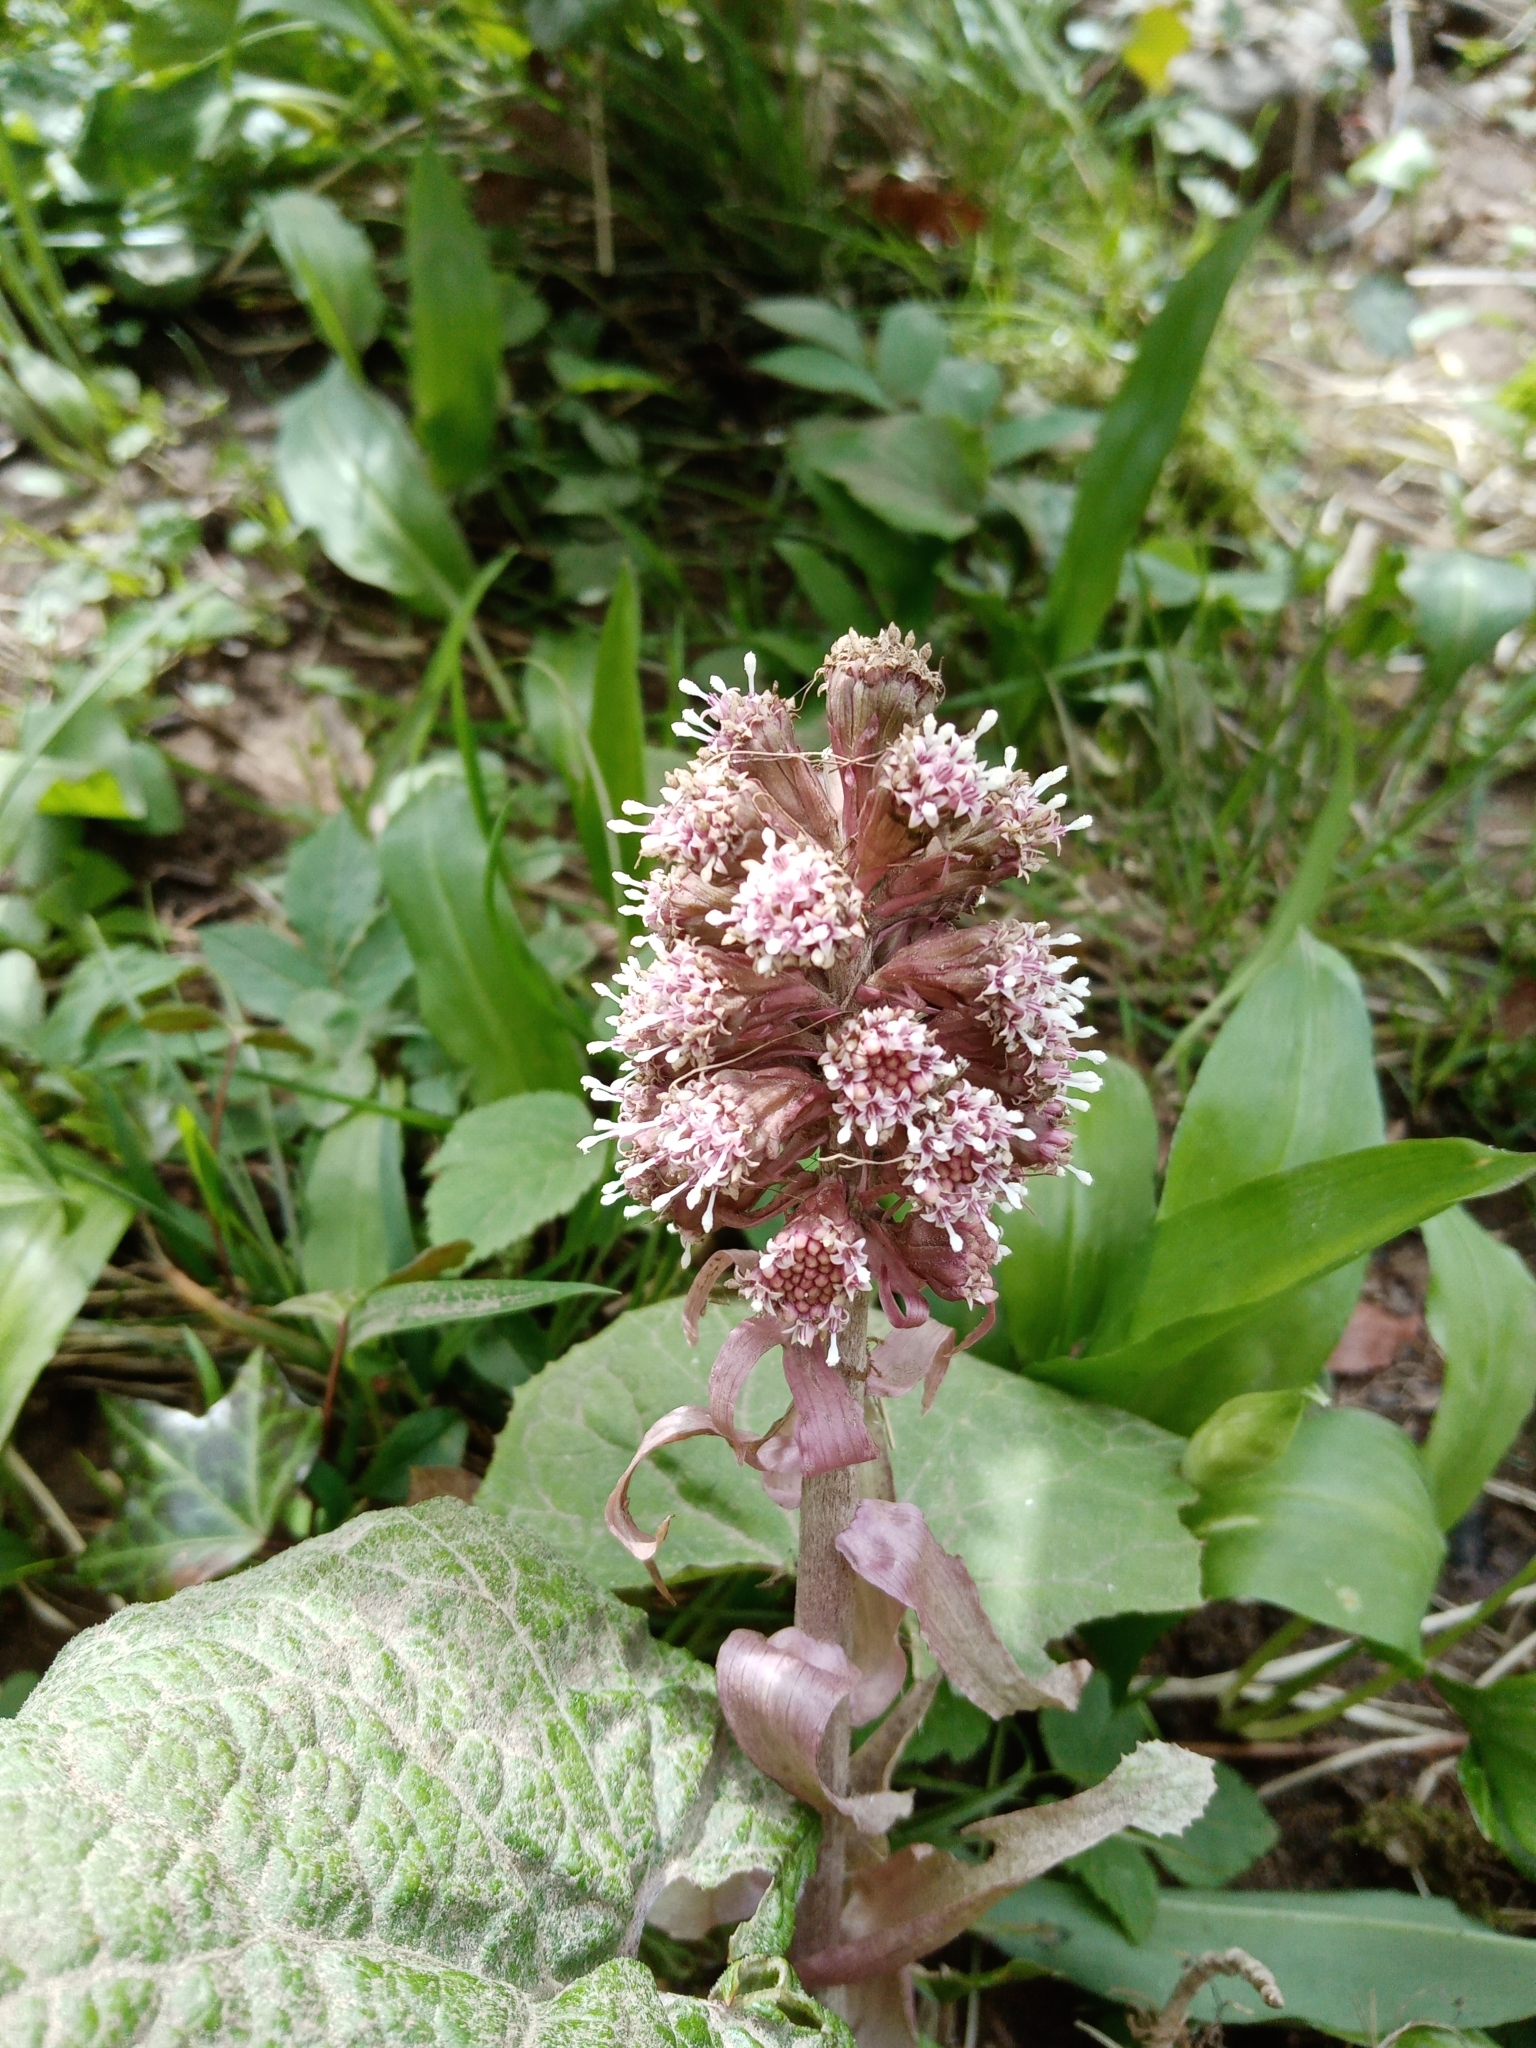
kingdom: Plantae
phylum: Tracheophyta
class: Magnoliopsida
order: Asterales
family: Asteraceae
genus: Petasites
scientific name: Petasites hybridus
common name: Butterbur
